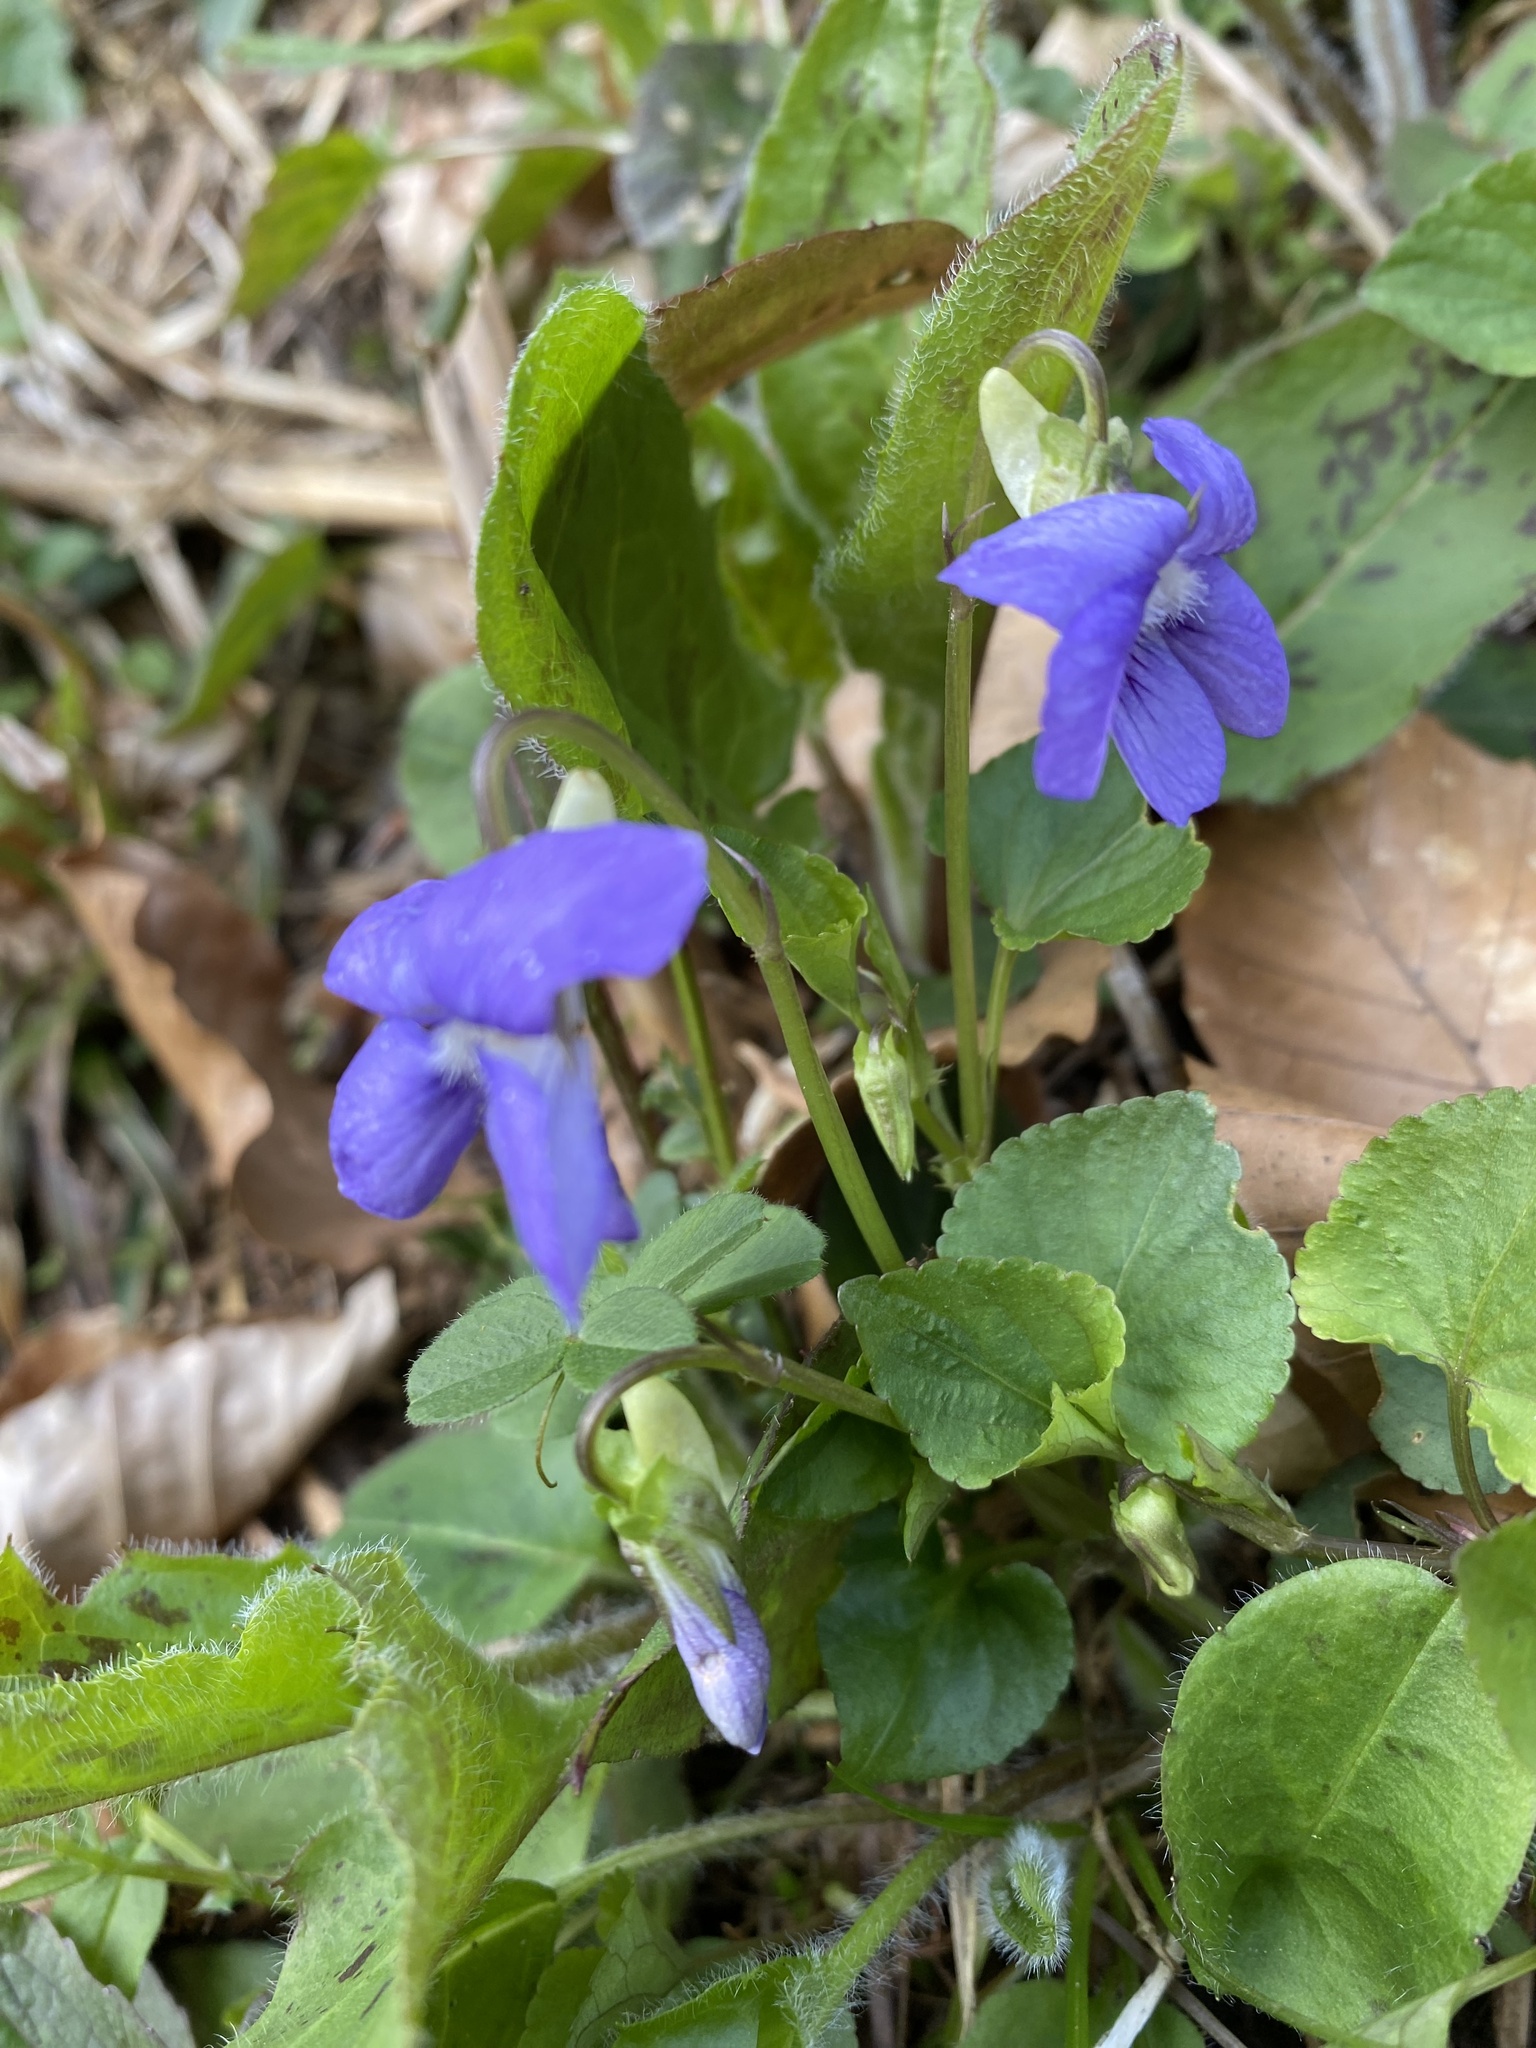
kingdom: Plantae
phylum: Tracheophyta
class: Magnoliopsida
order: Malpighiales
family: Violaceae
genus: Viola
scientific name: Viola riviniana
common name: Common dog-violet
